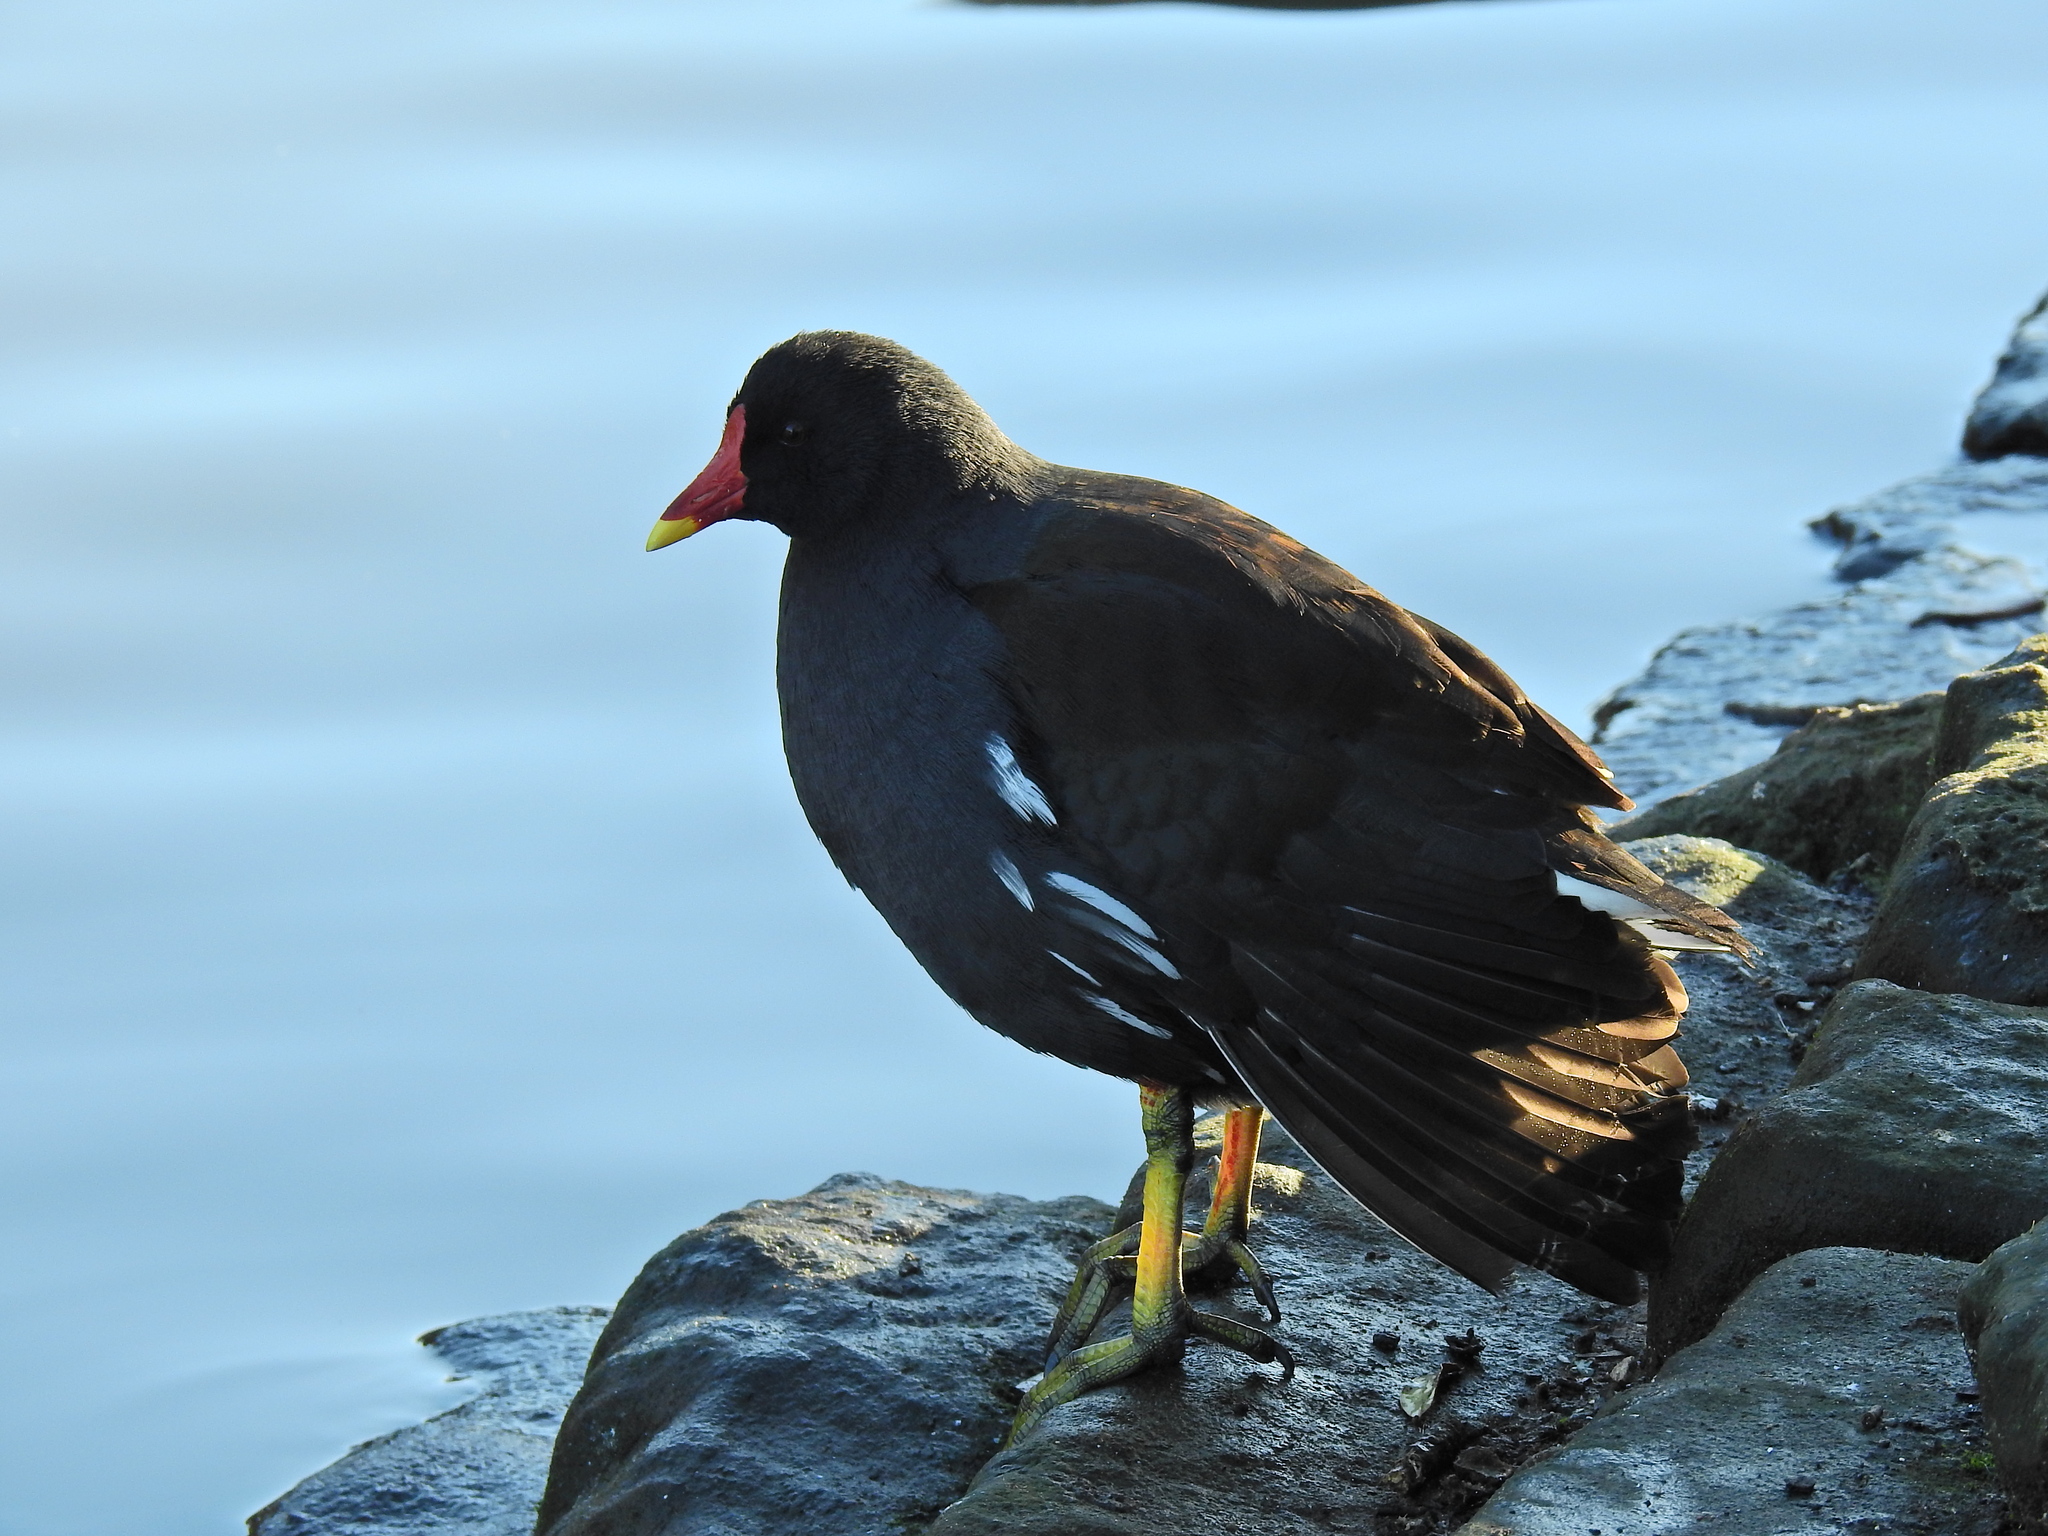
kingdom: Animalia
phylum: Chordata
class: Aves
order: Gruiformes
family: Rallidae
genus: Gallinula
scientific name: Gallinula chloropus
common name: Common moorhen
